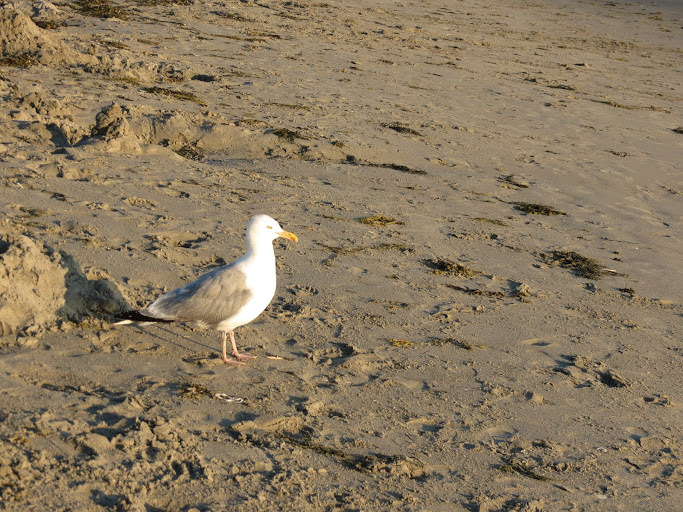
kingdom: Animalia
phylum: Chordata
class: Aves
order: Charadriiformes
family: Laridae
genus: Larus
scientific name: Larus argentatus
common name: Herring gull
